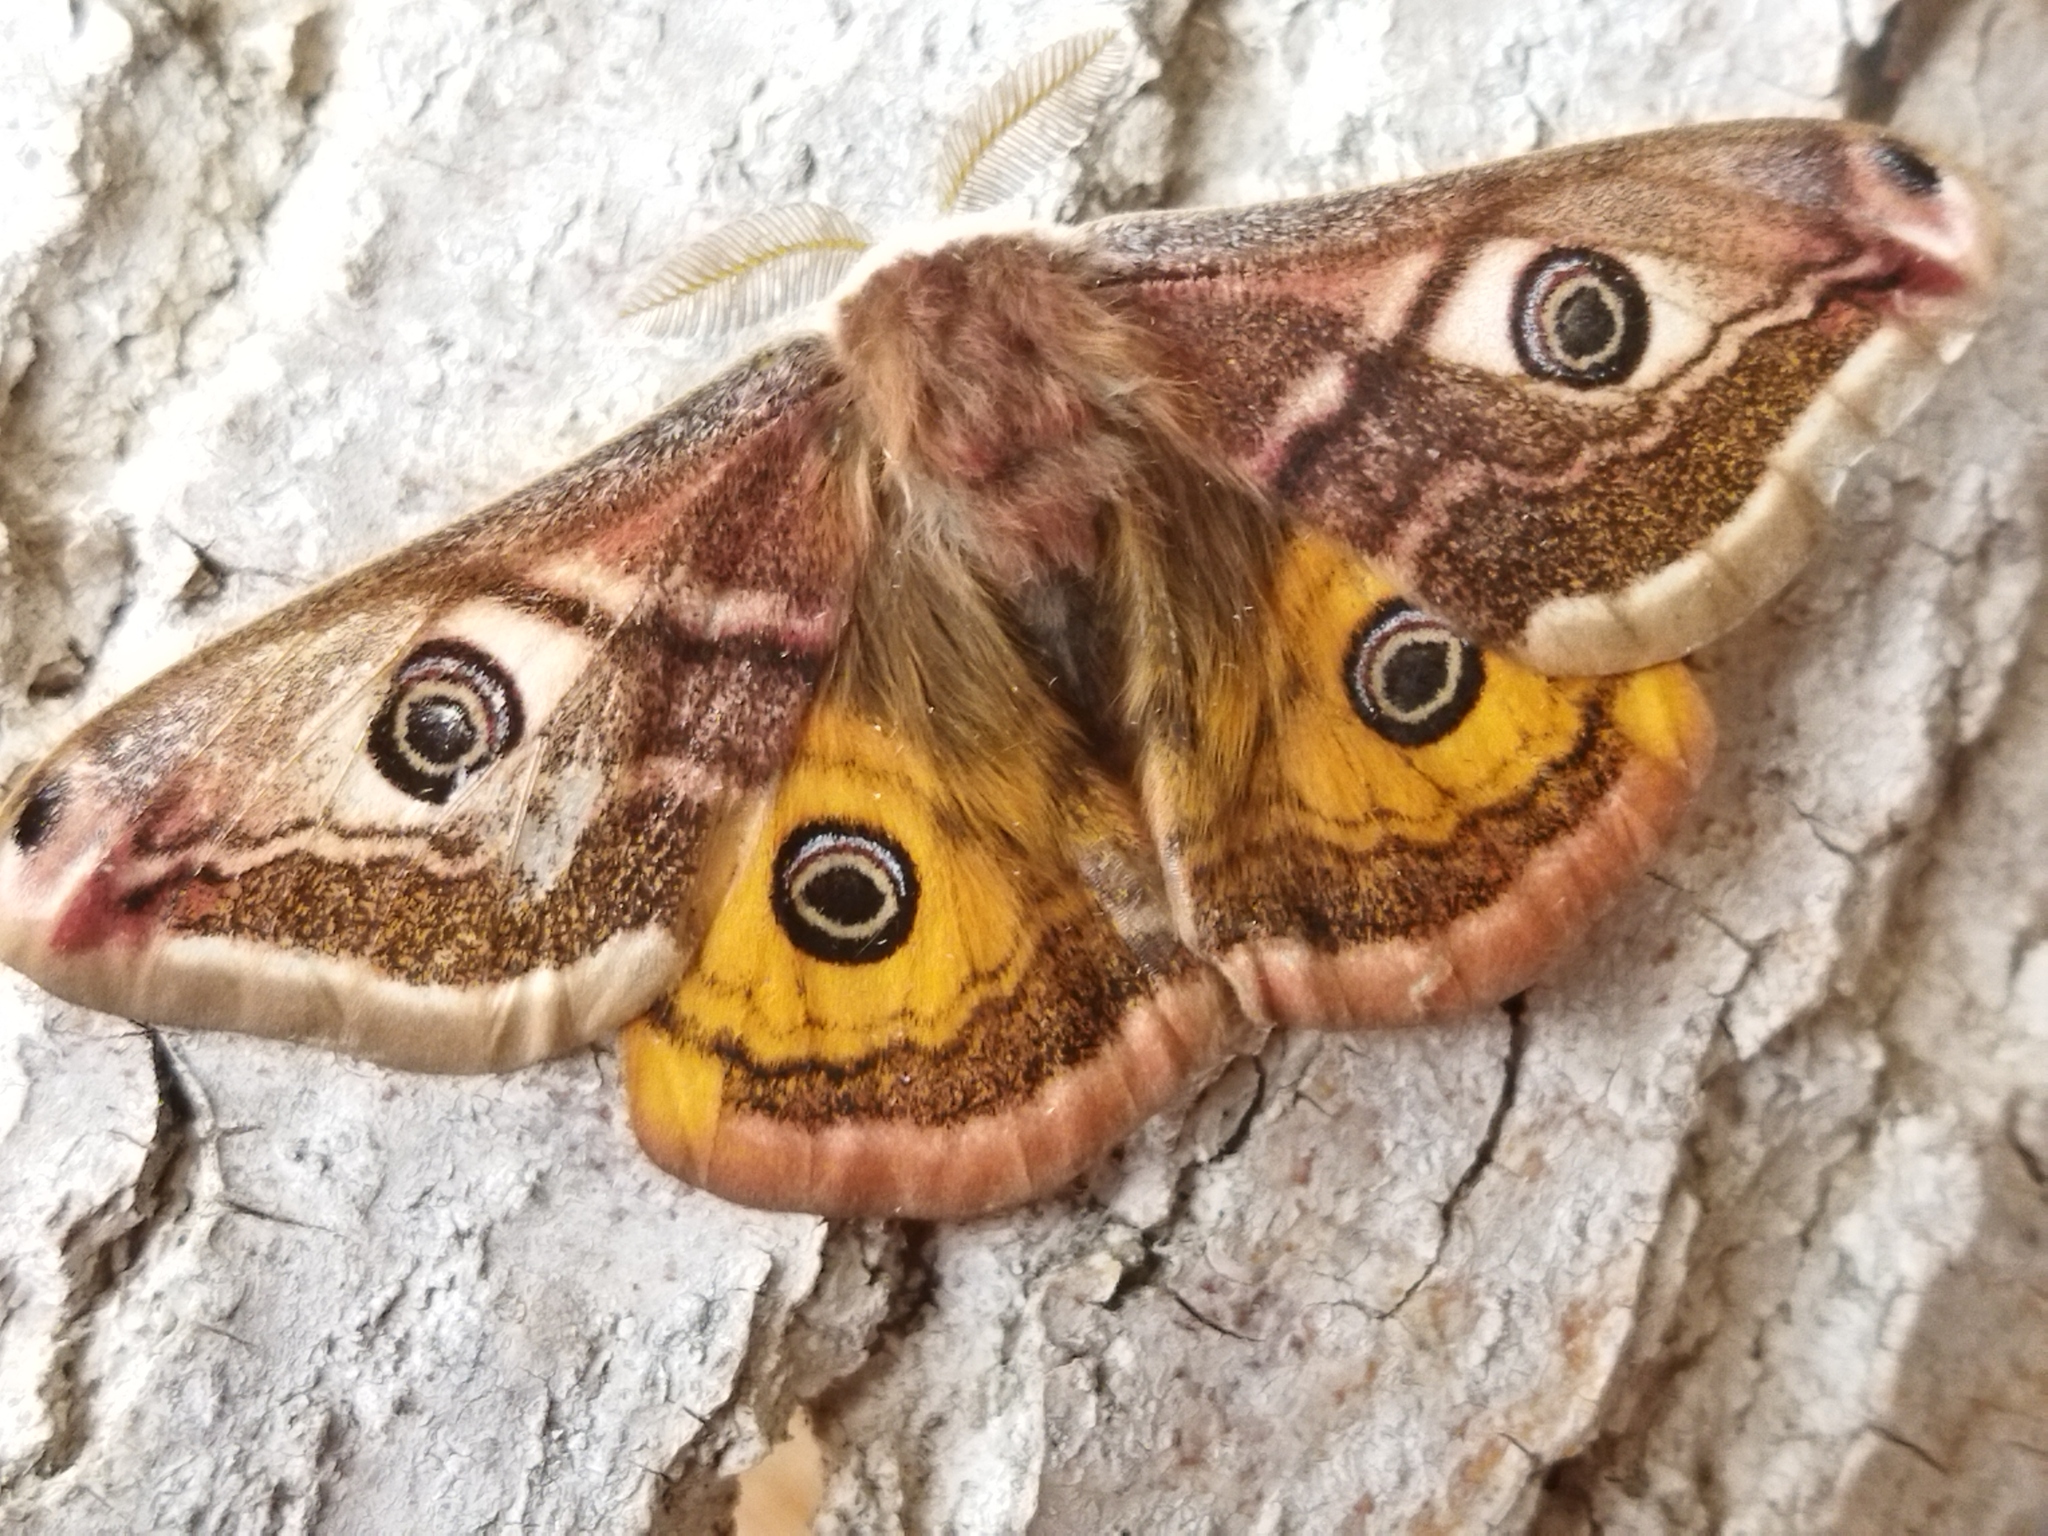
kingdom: Animalia
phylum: Arthropoda
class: Insecta
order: Lepidoptera
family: Saturniidae
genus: Saturnia
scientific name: Saturnia pavoniella
